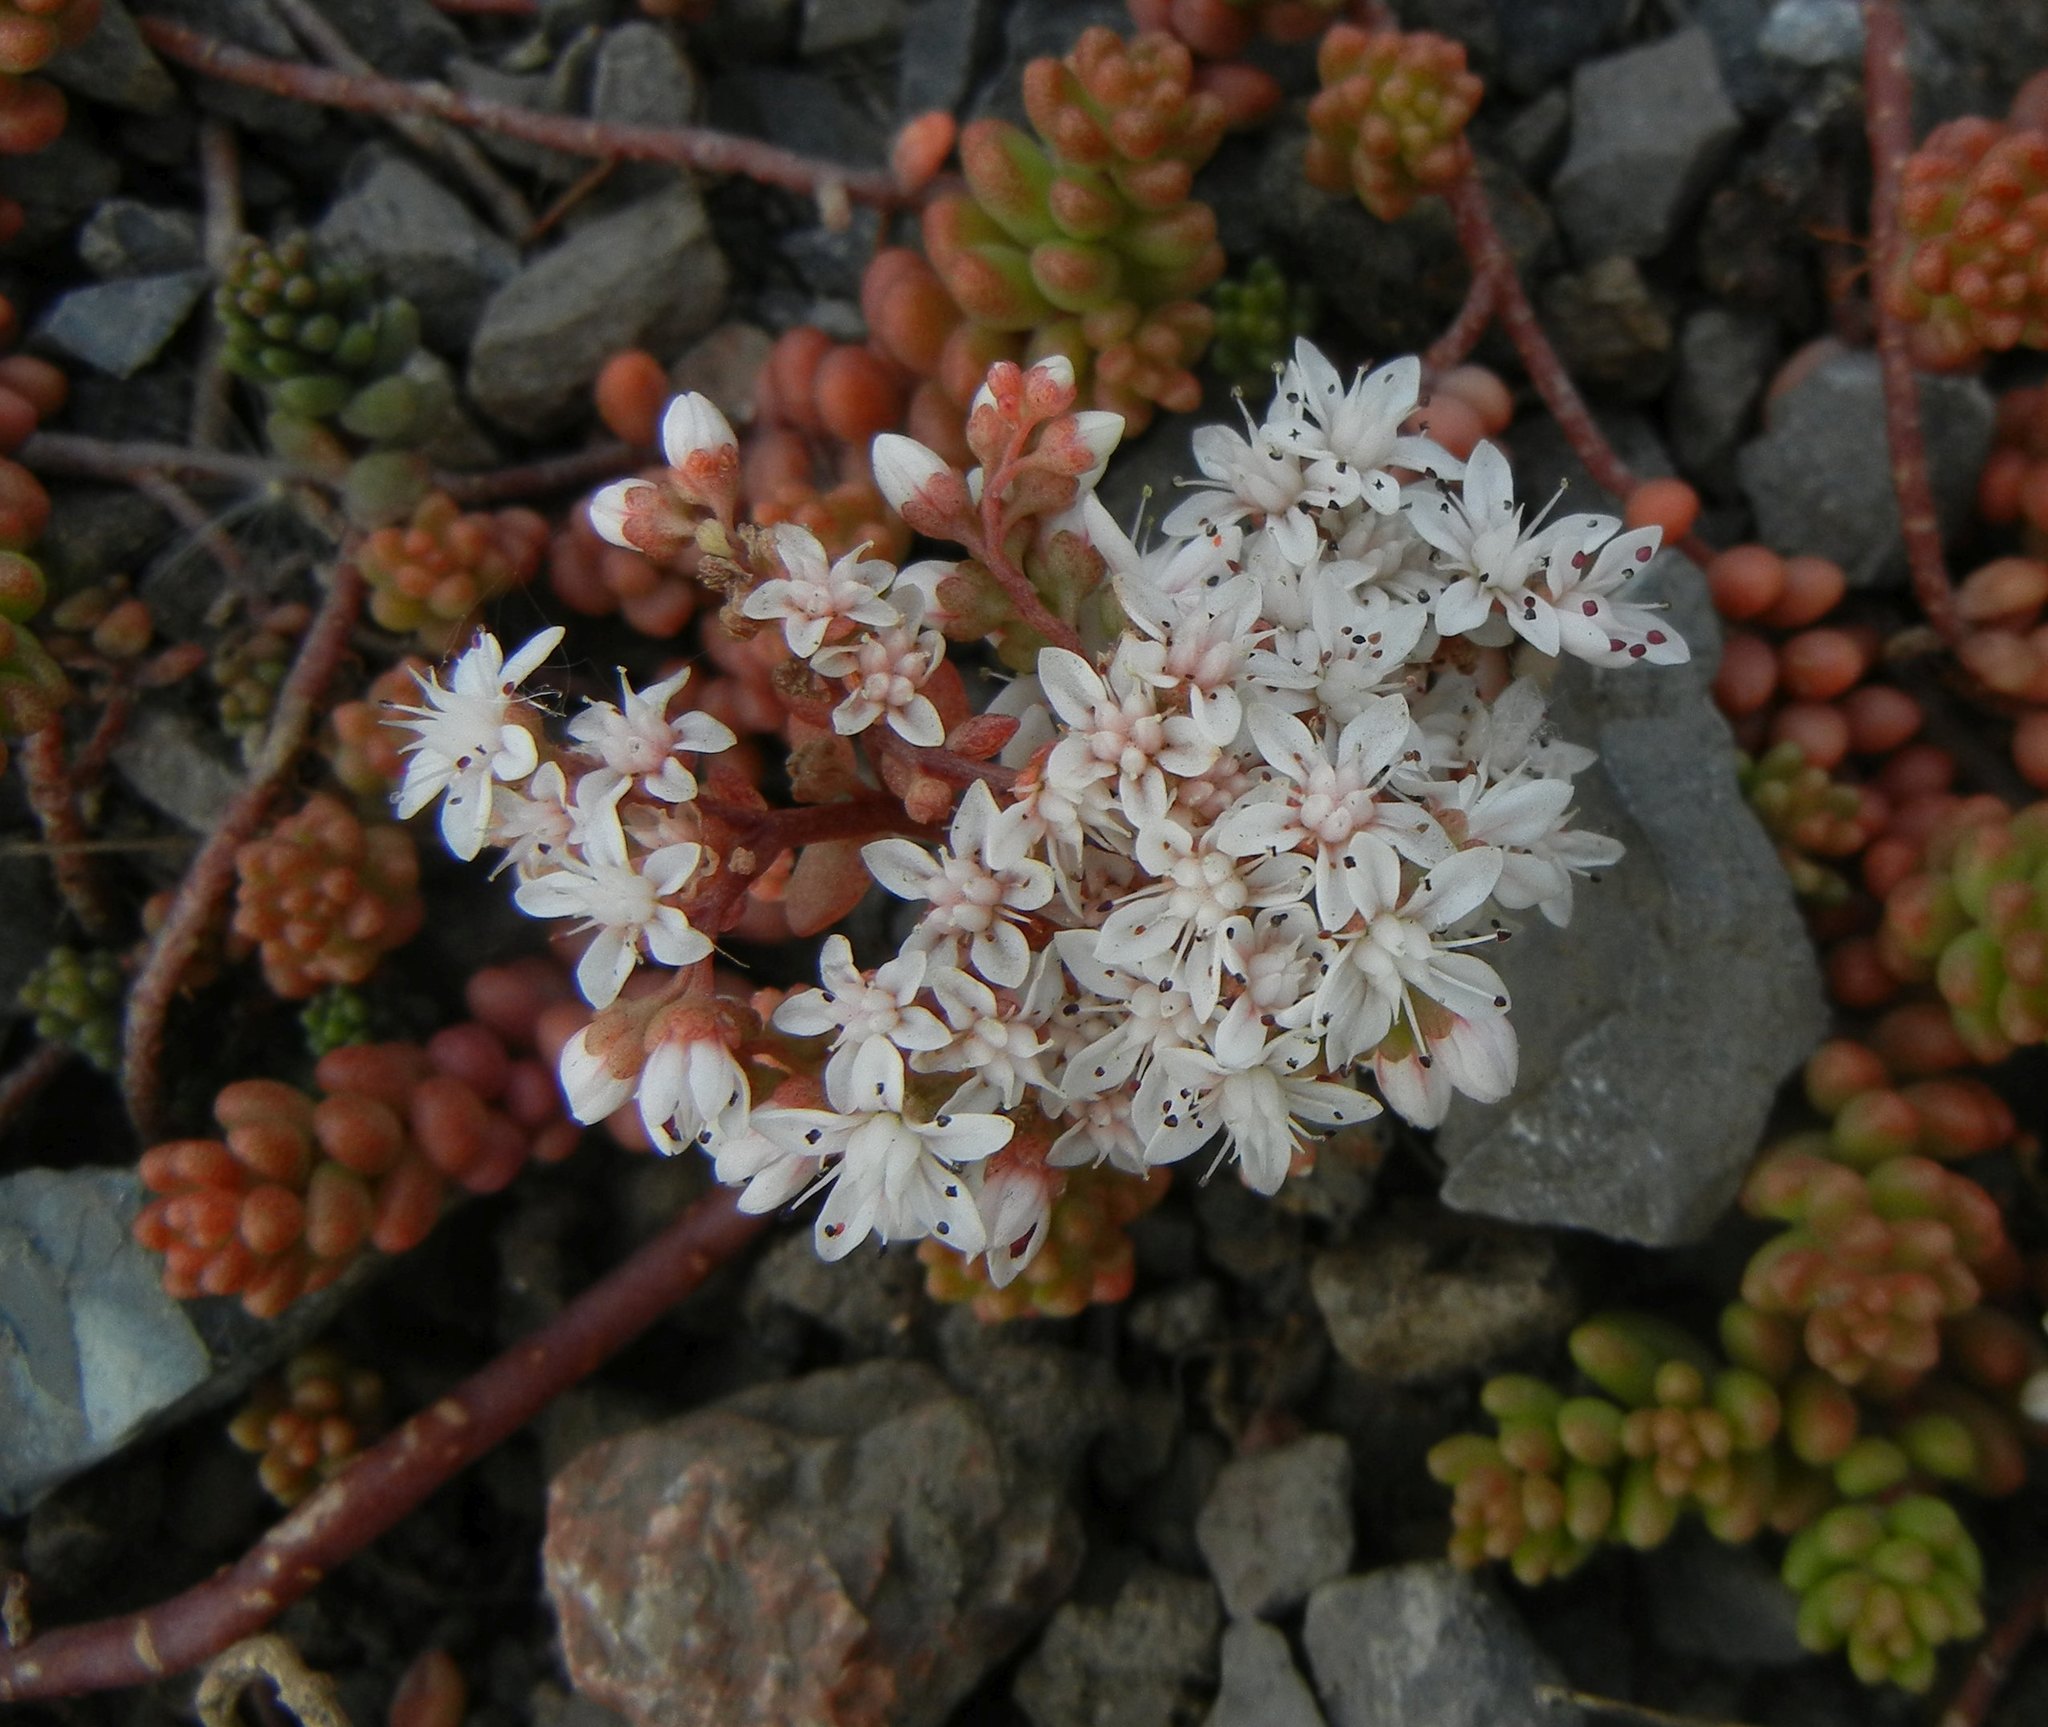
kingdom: Plantae
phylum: Tracheophyta
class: Magnoliopsida
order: Saxifragales
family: Crassulaceae
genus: Sedum
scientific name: Sedum album
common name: White stonecrop
